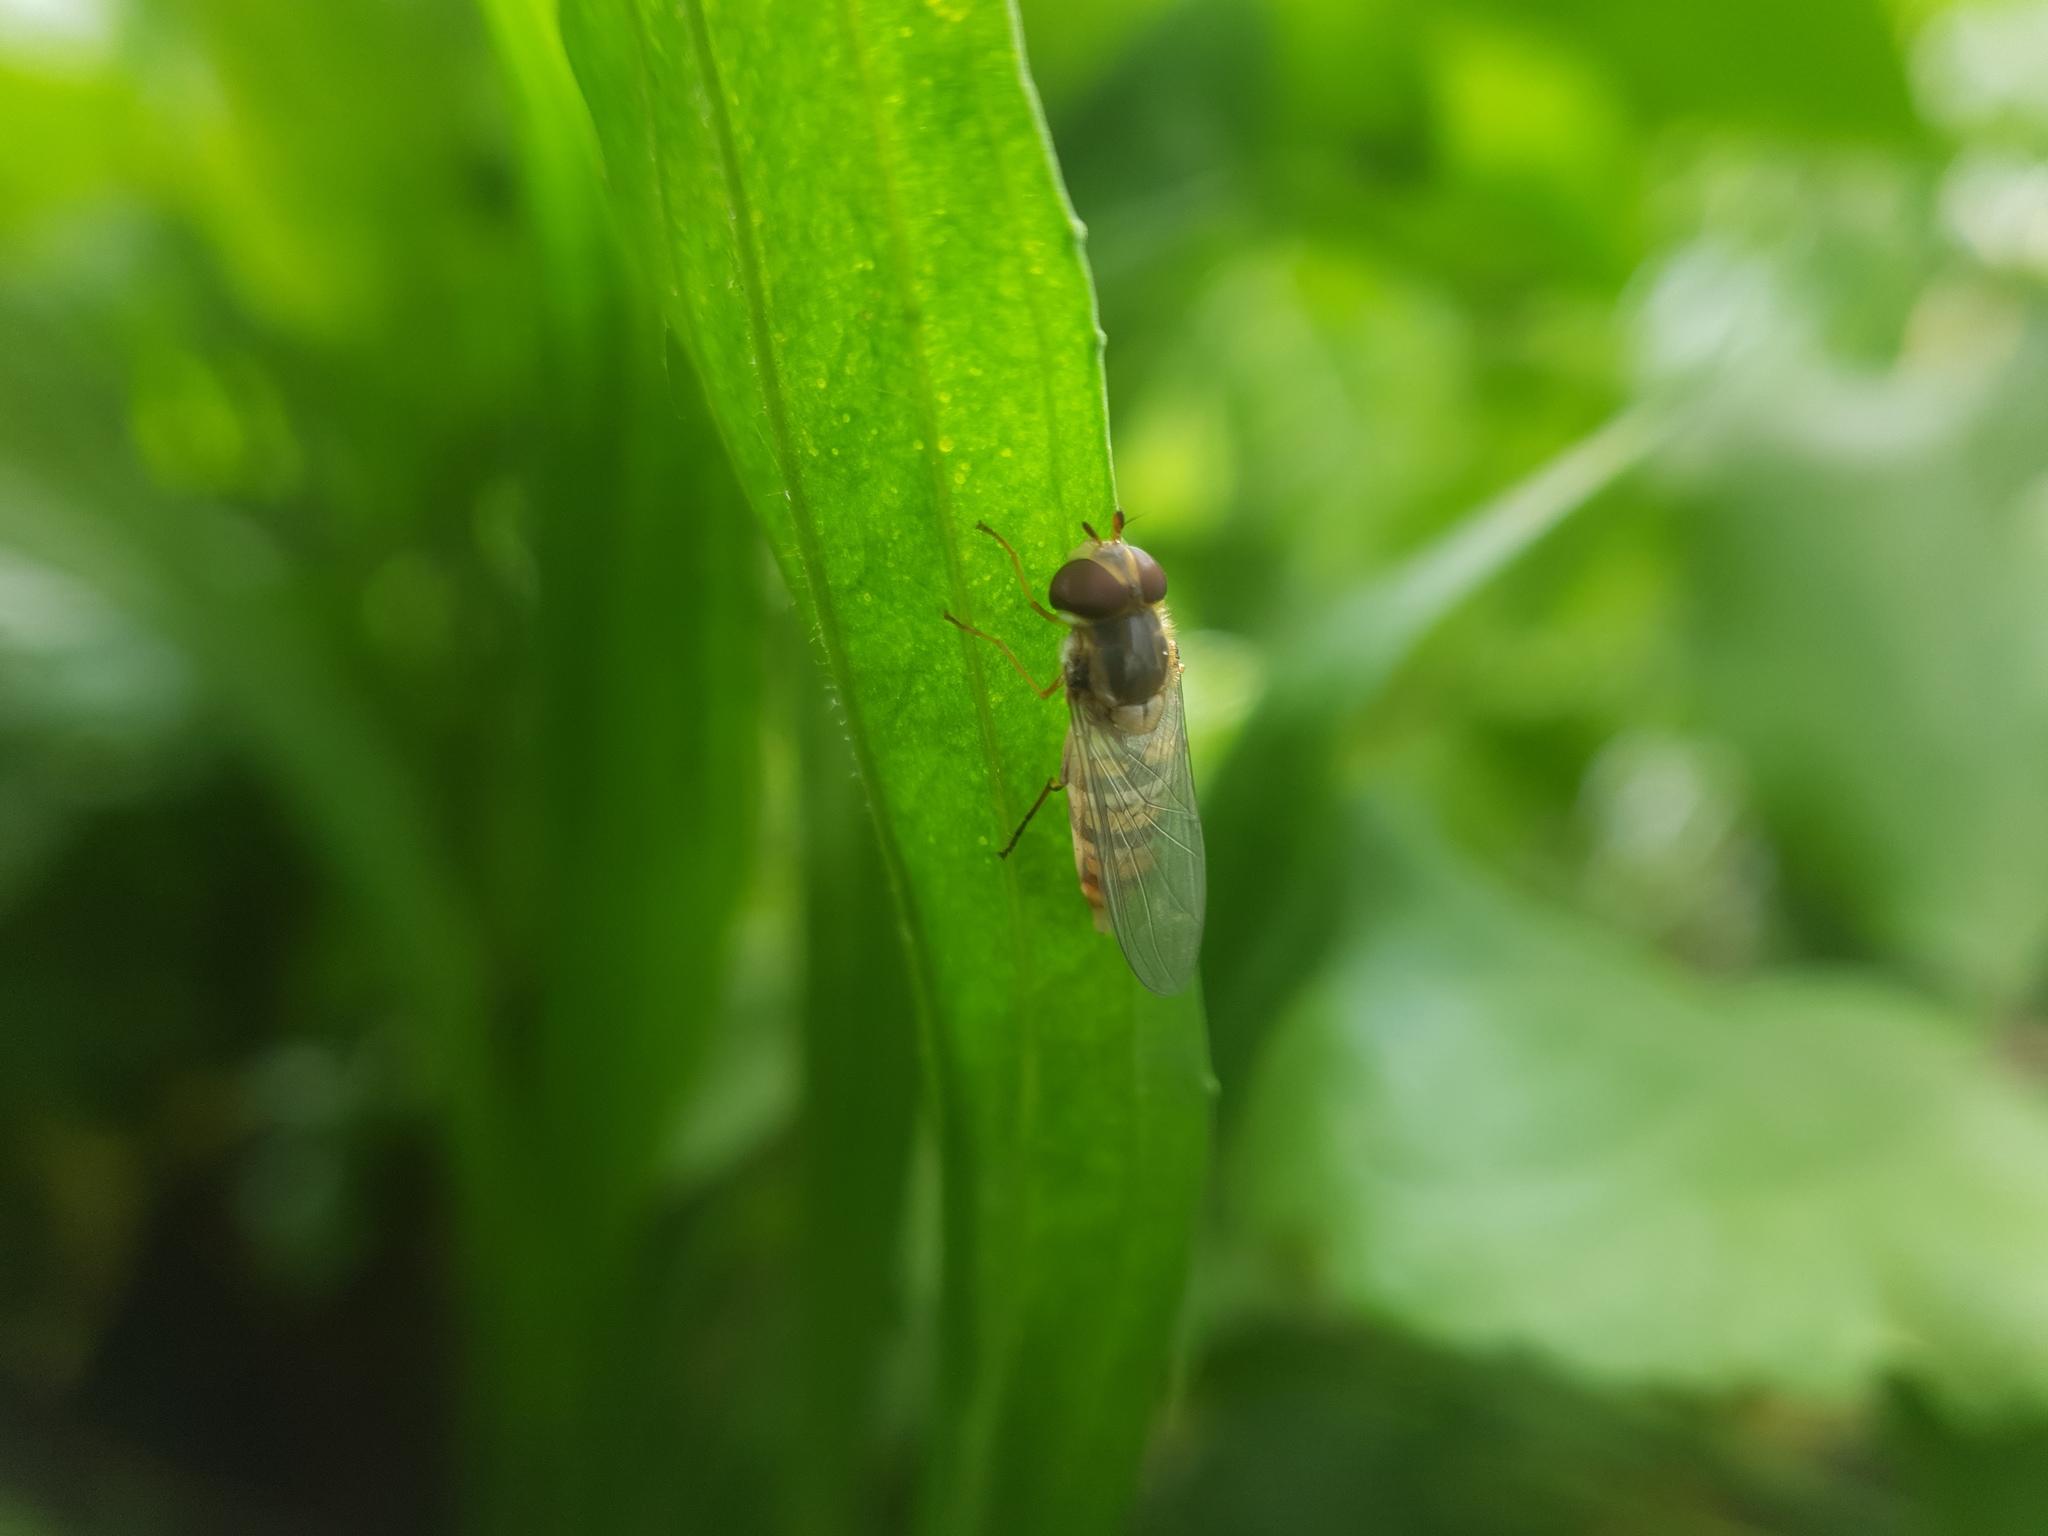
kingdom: Animalia
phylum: Arthropoda
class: Insecta
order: Diptera
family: Syrphidae
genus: Episyrphus
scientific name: Episyrphus balteatus
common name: Marmalade hoverfly
